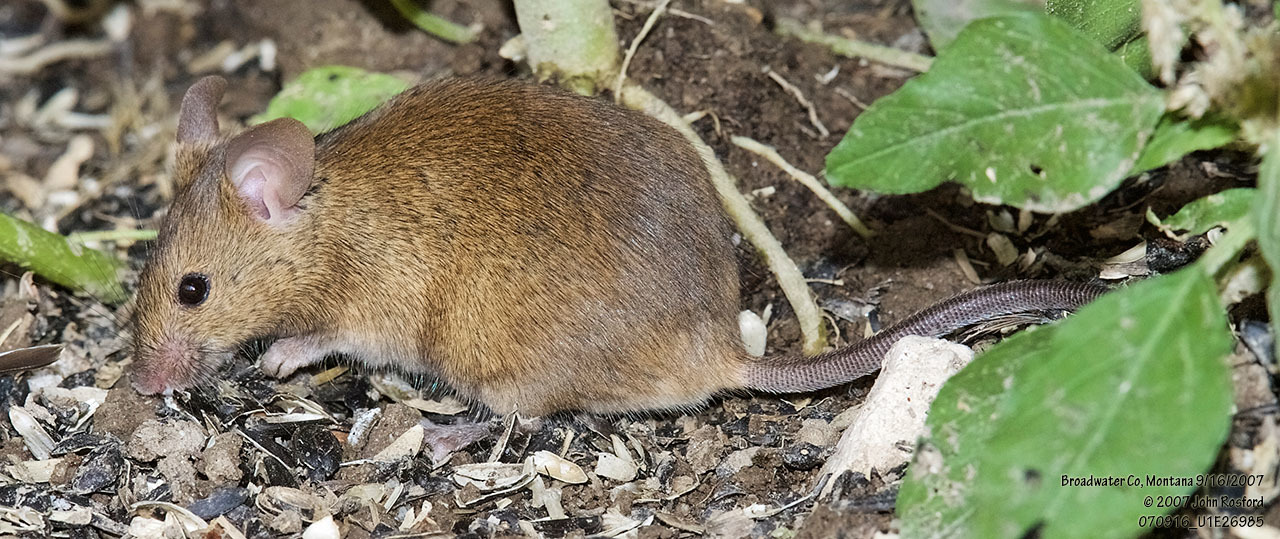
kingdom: Animalia
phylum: Chordata
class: Mammalia
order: Rodentia
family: Muridae
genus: Mus
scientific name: Mus musculus
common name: House mouse
